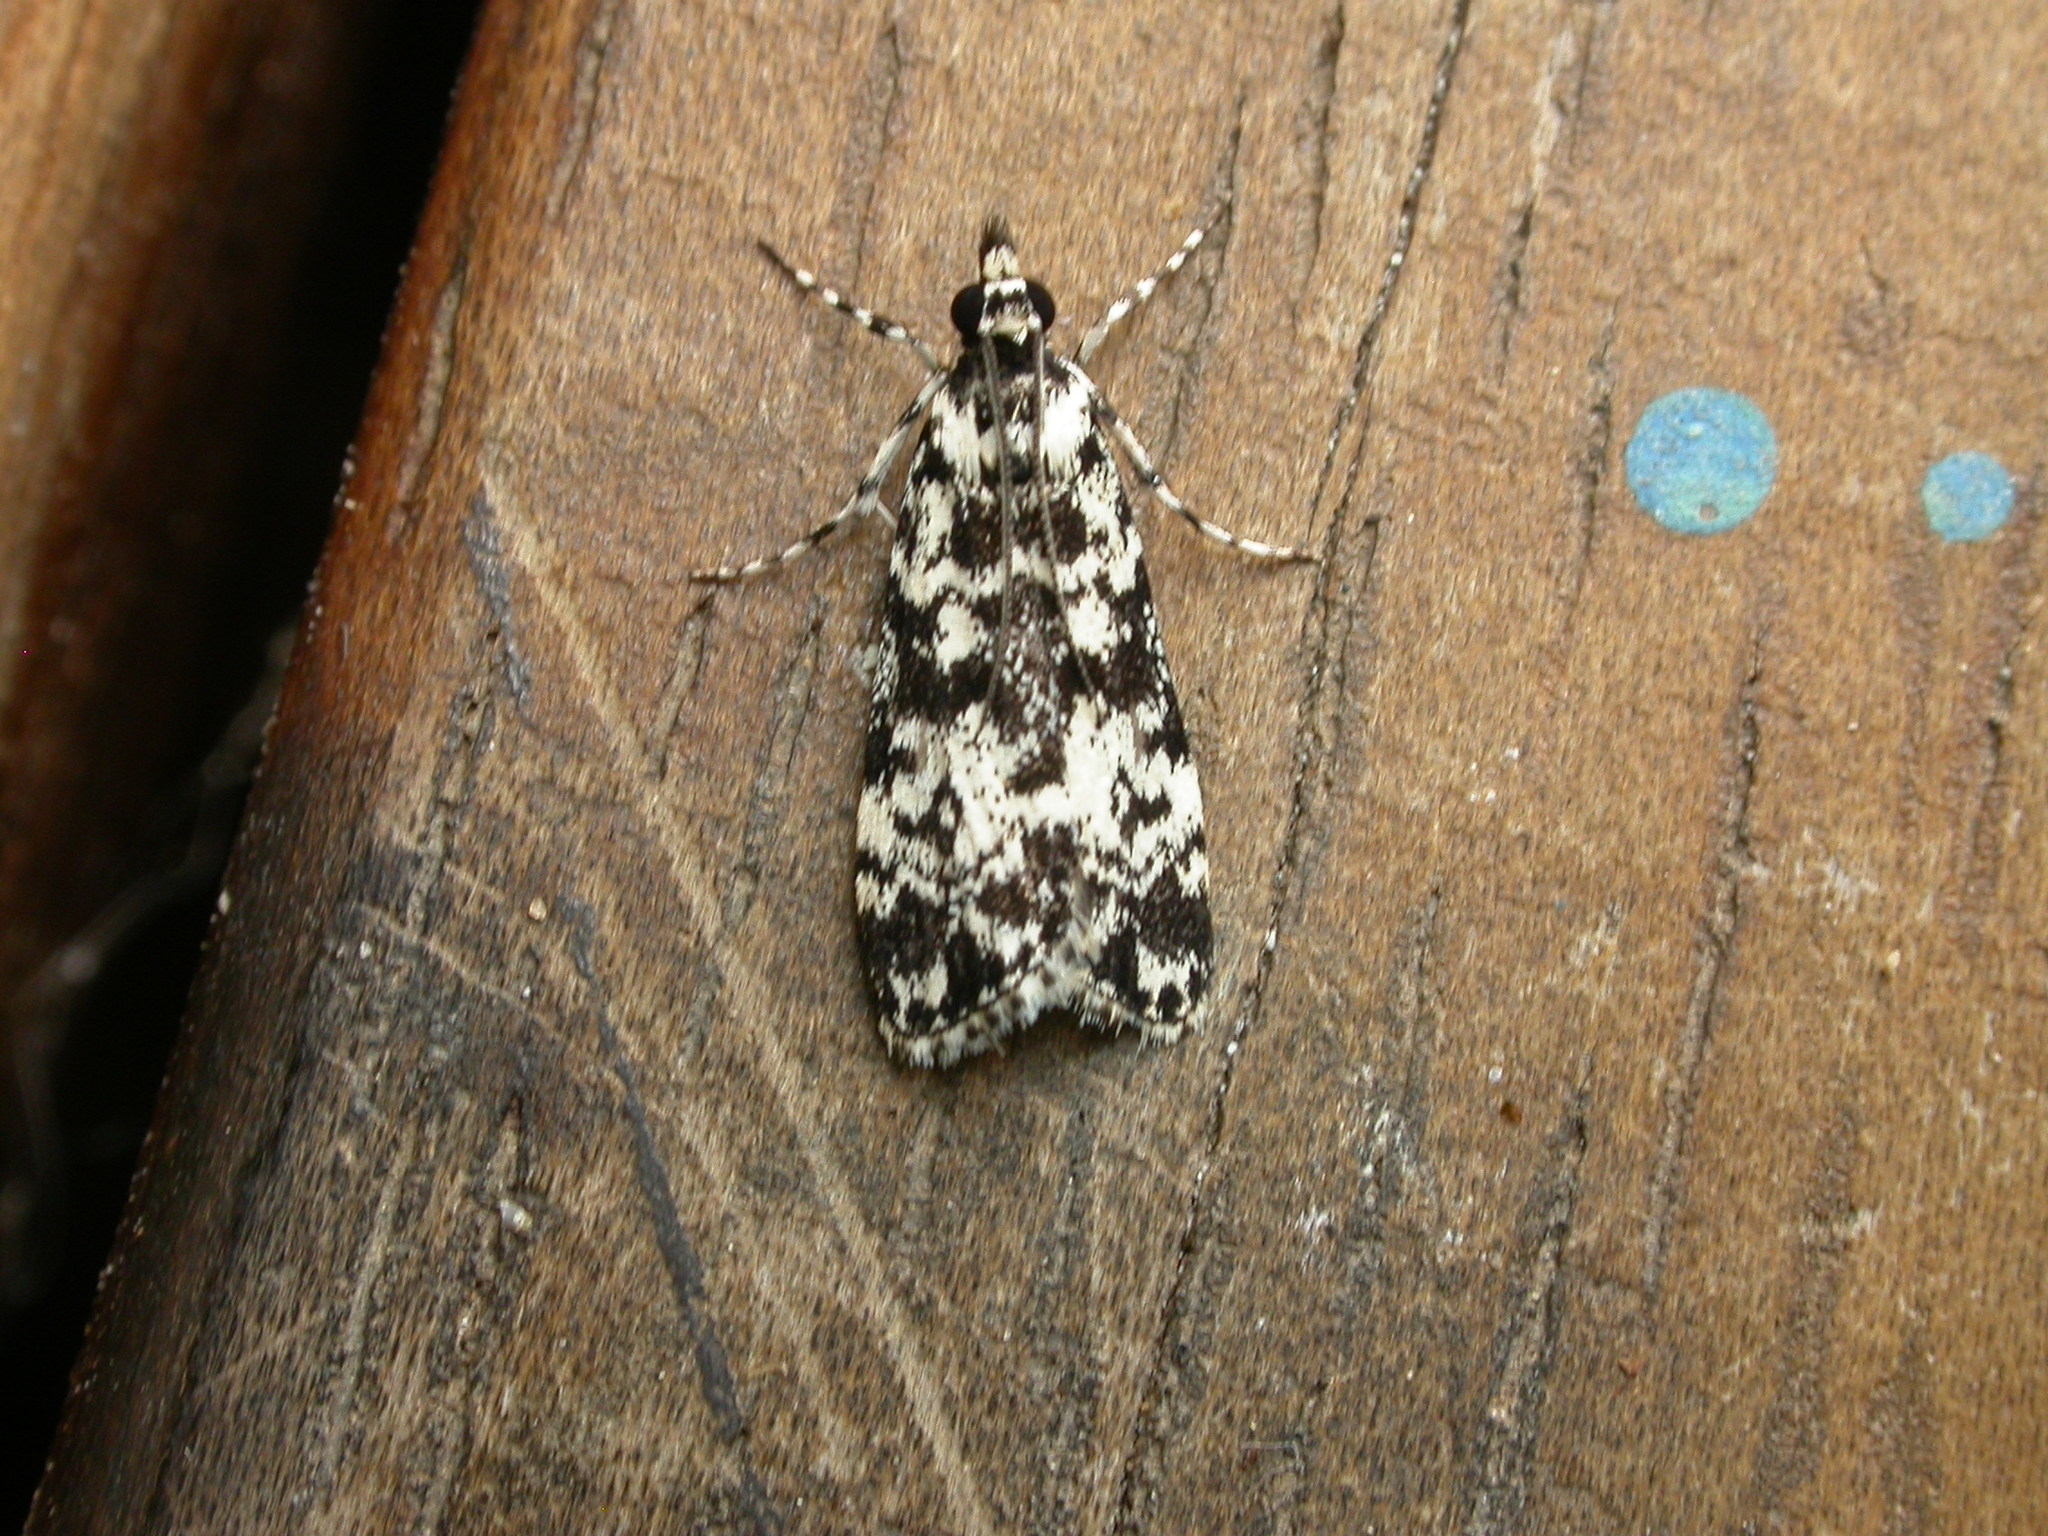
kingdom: Animalia
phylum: Arthropoda
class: Insecta
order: Lepidoptera
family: Crambidae
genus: Scoparia
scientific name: Scoparia exhibitalis
